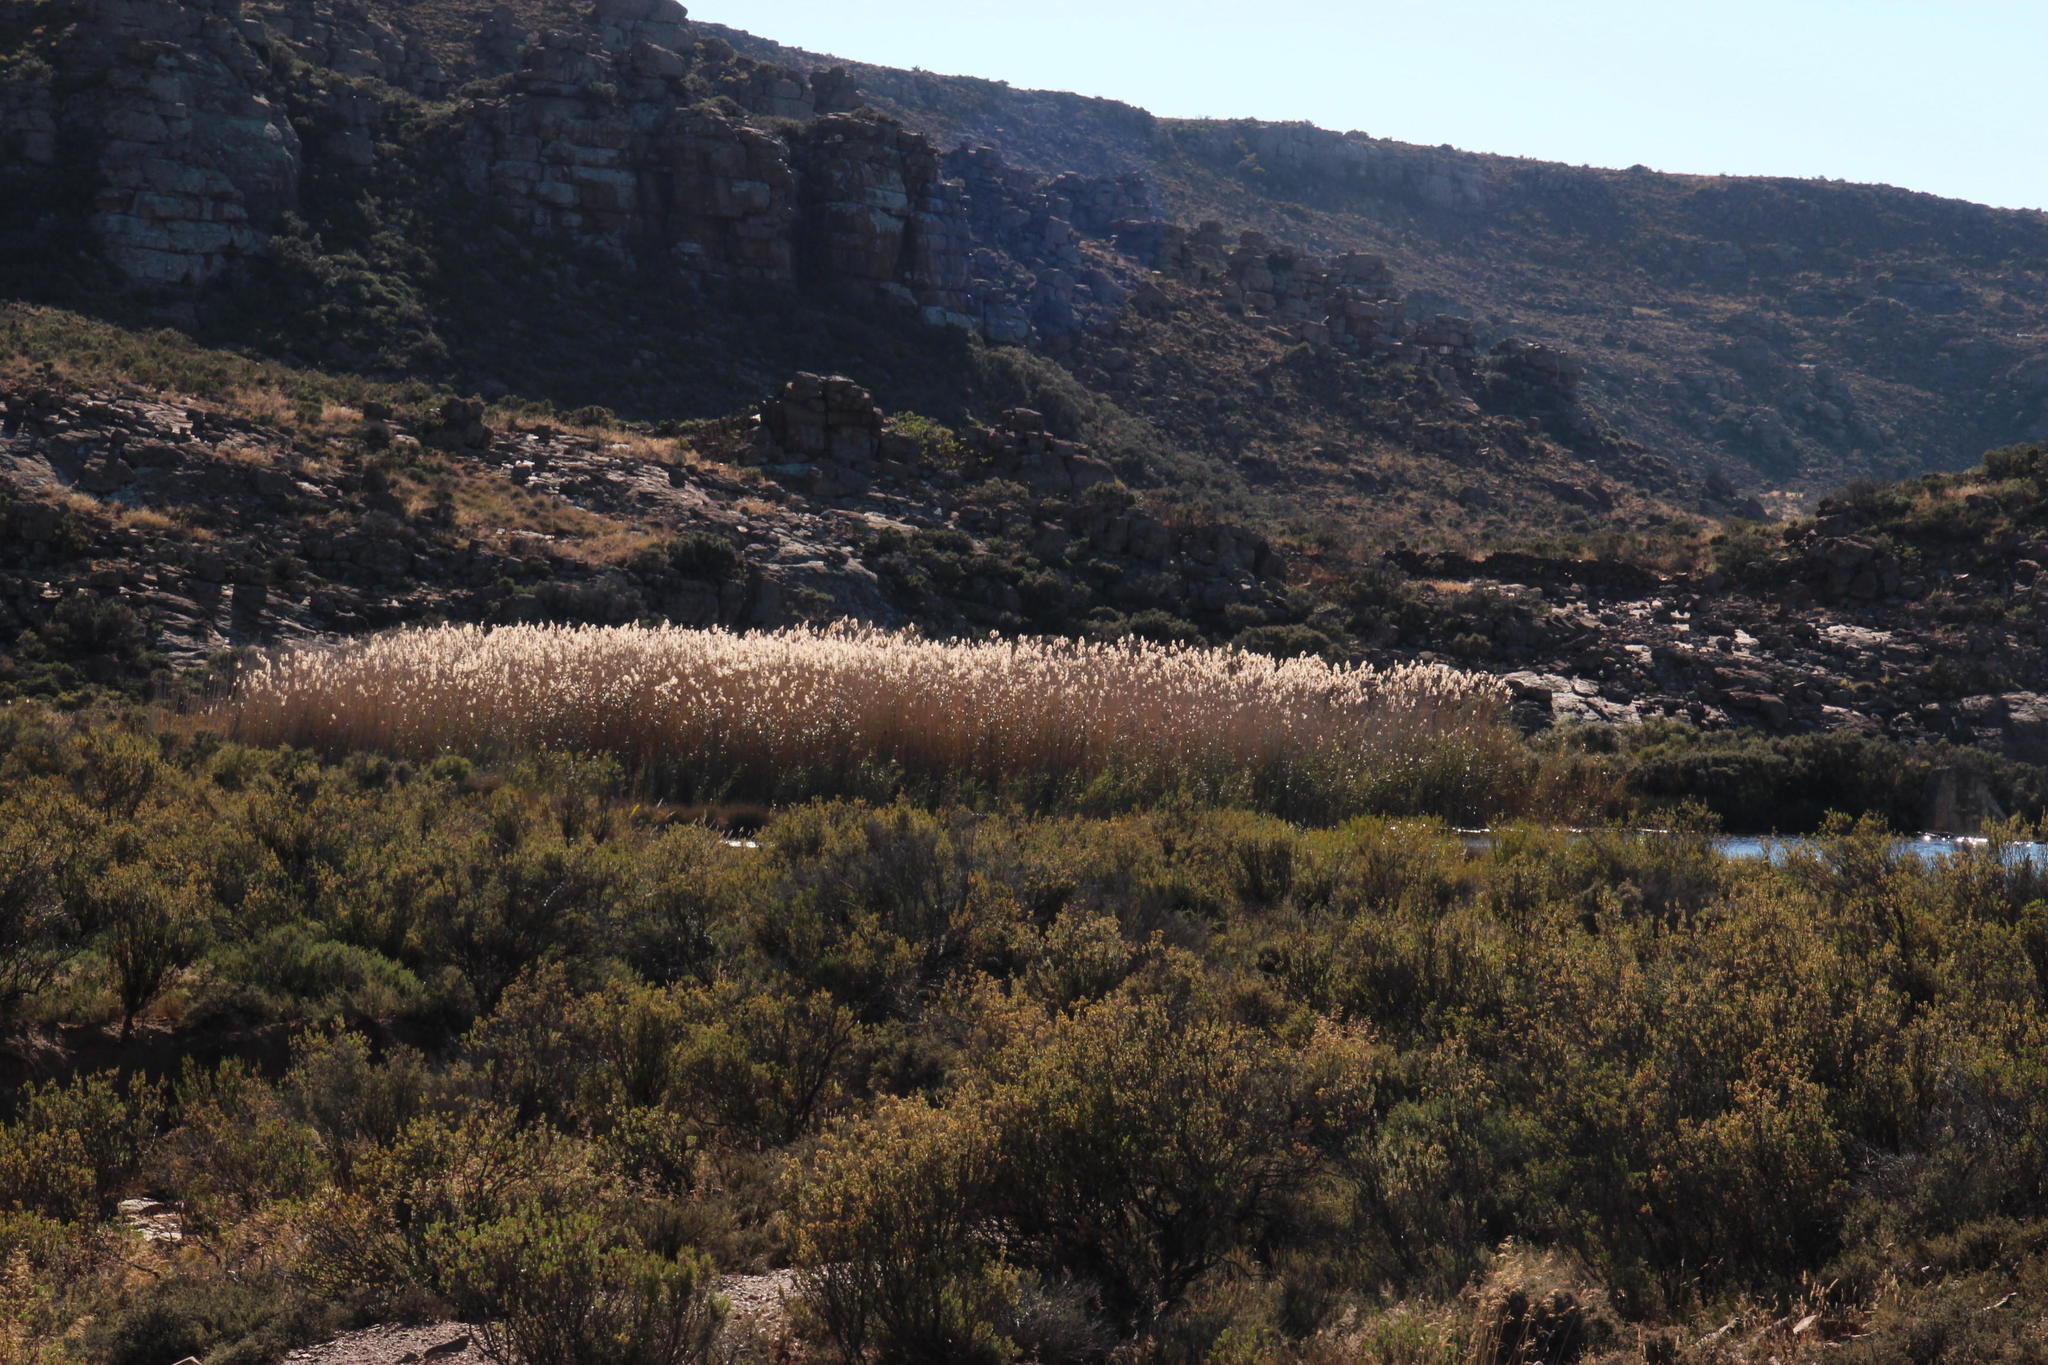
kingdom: Plantae
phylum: Tracheophyta
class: Liliopsida
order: Poales
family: Poaceae
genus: Phragmites
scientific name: Phragmites australis
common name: Common reed
